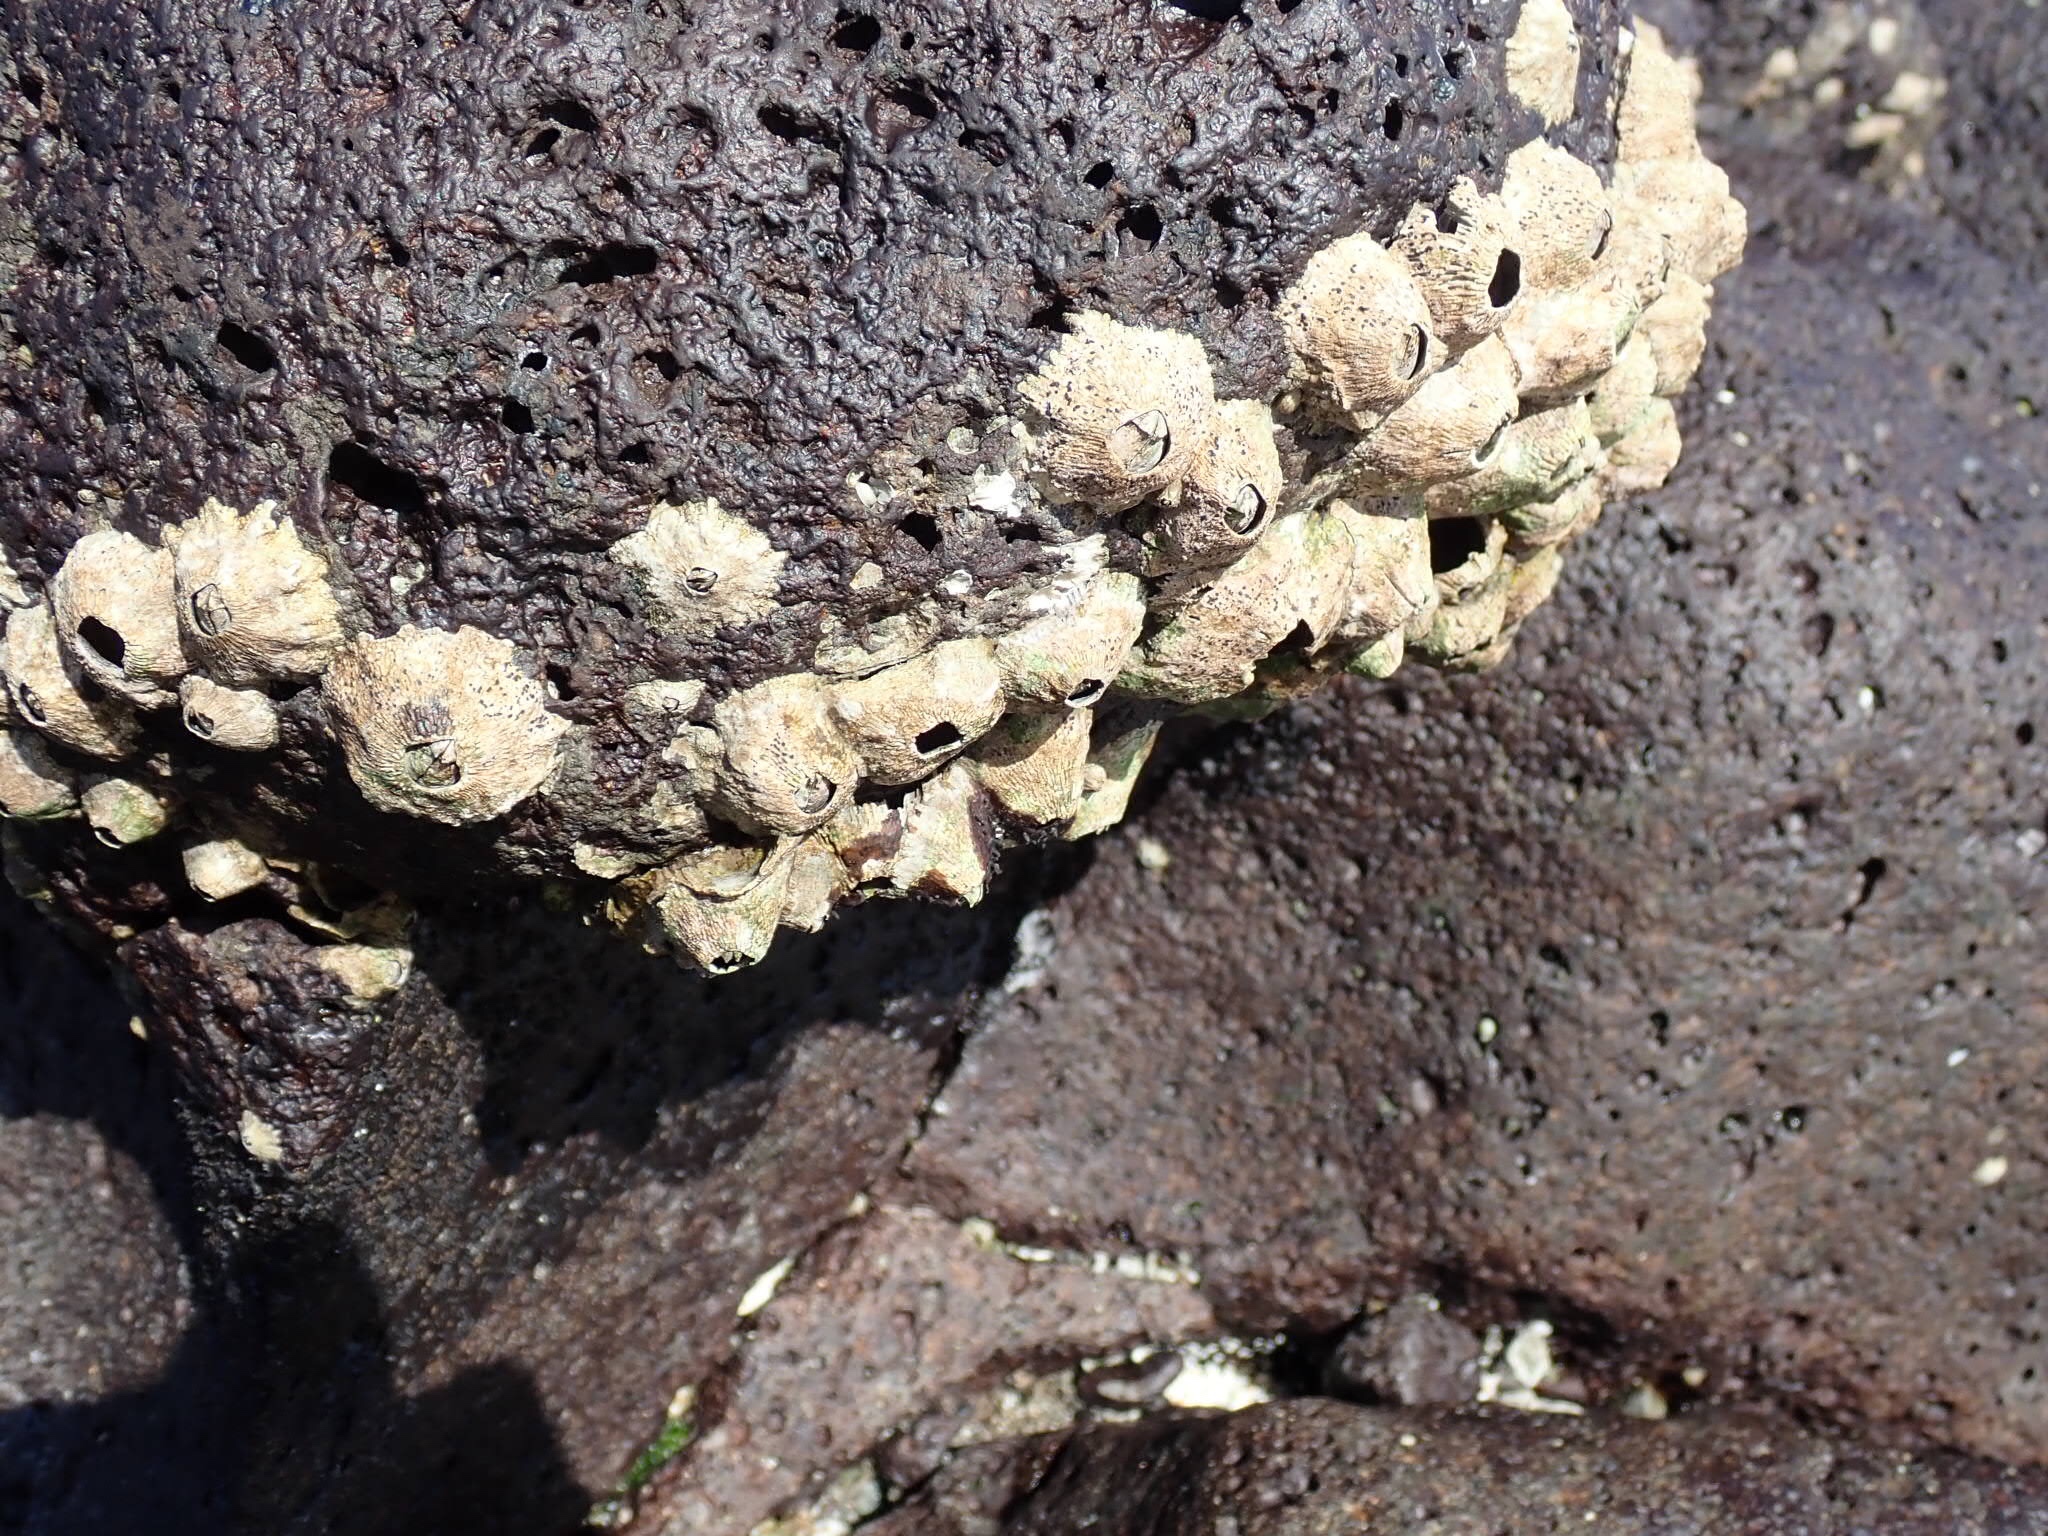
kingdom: Animalia
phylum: Arthropoda
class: Maxillopoda
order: Sessilia
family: Tetraclitidae
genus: Tetraclita
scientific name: Tetraclita squamosa
